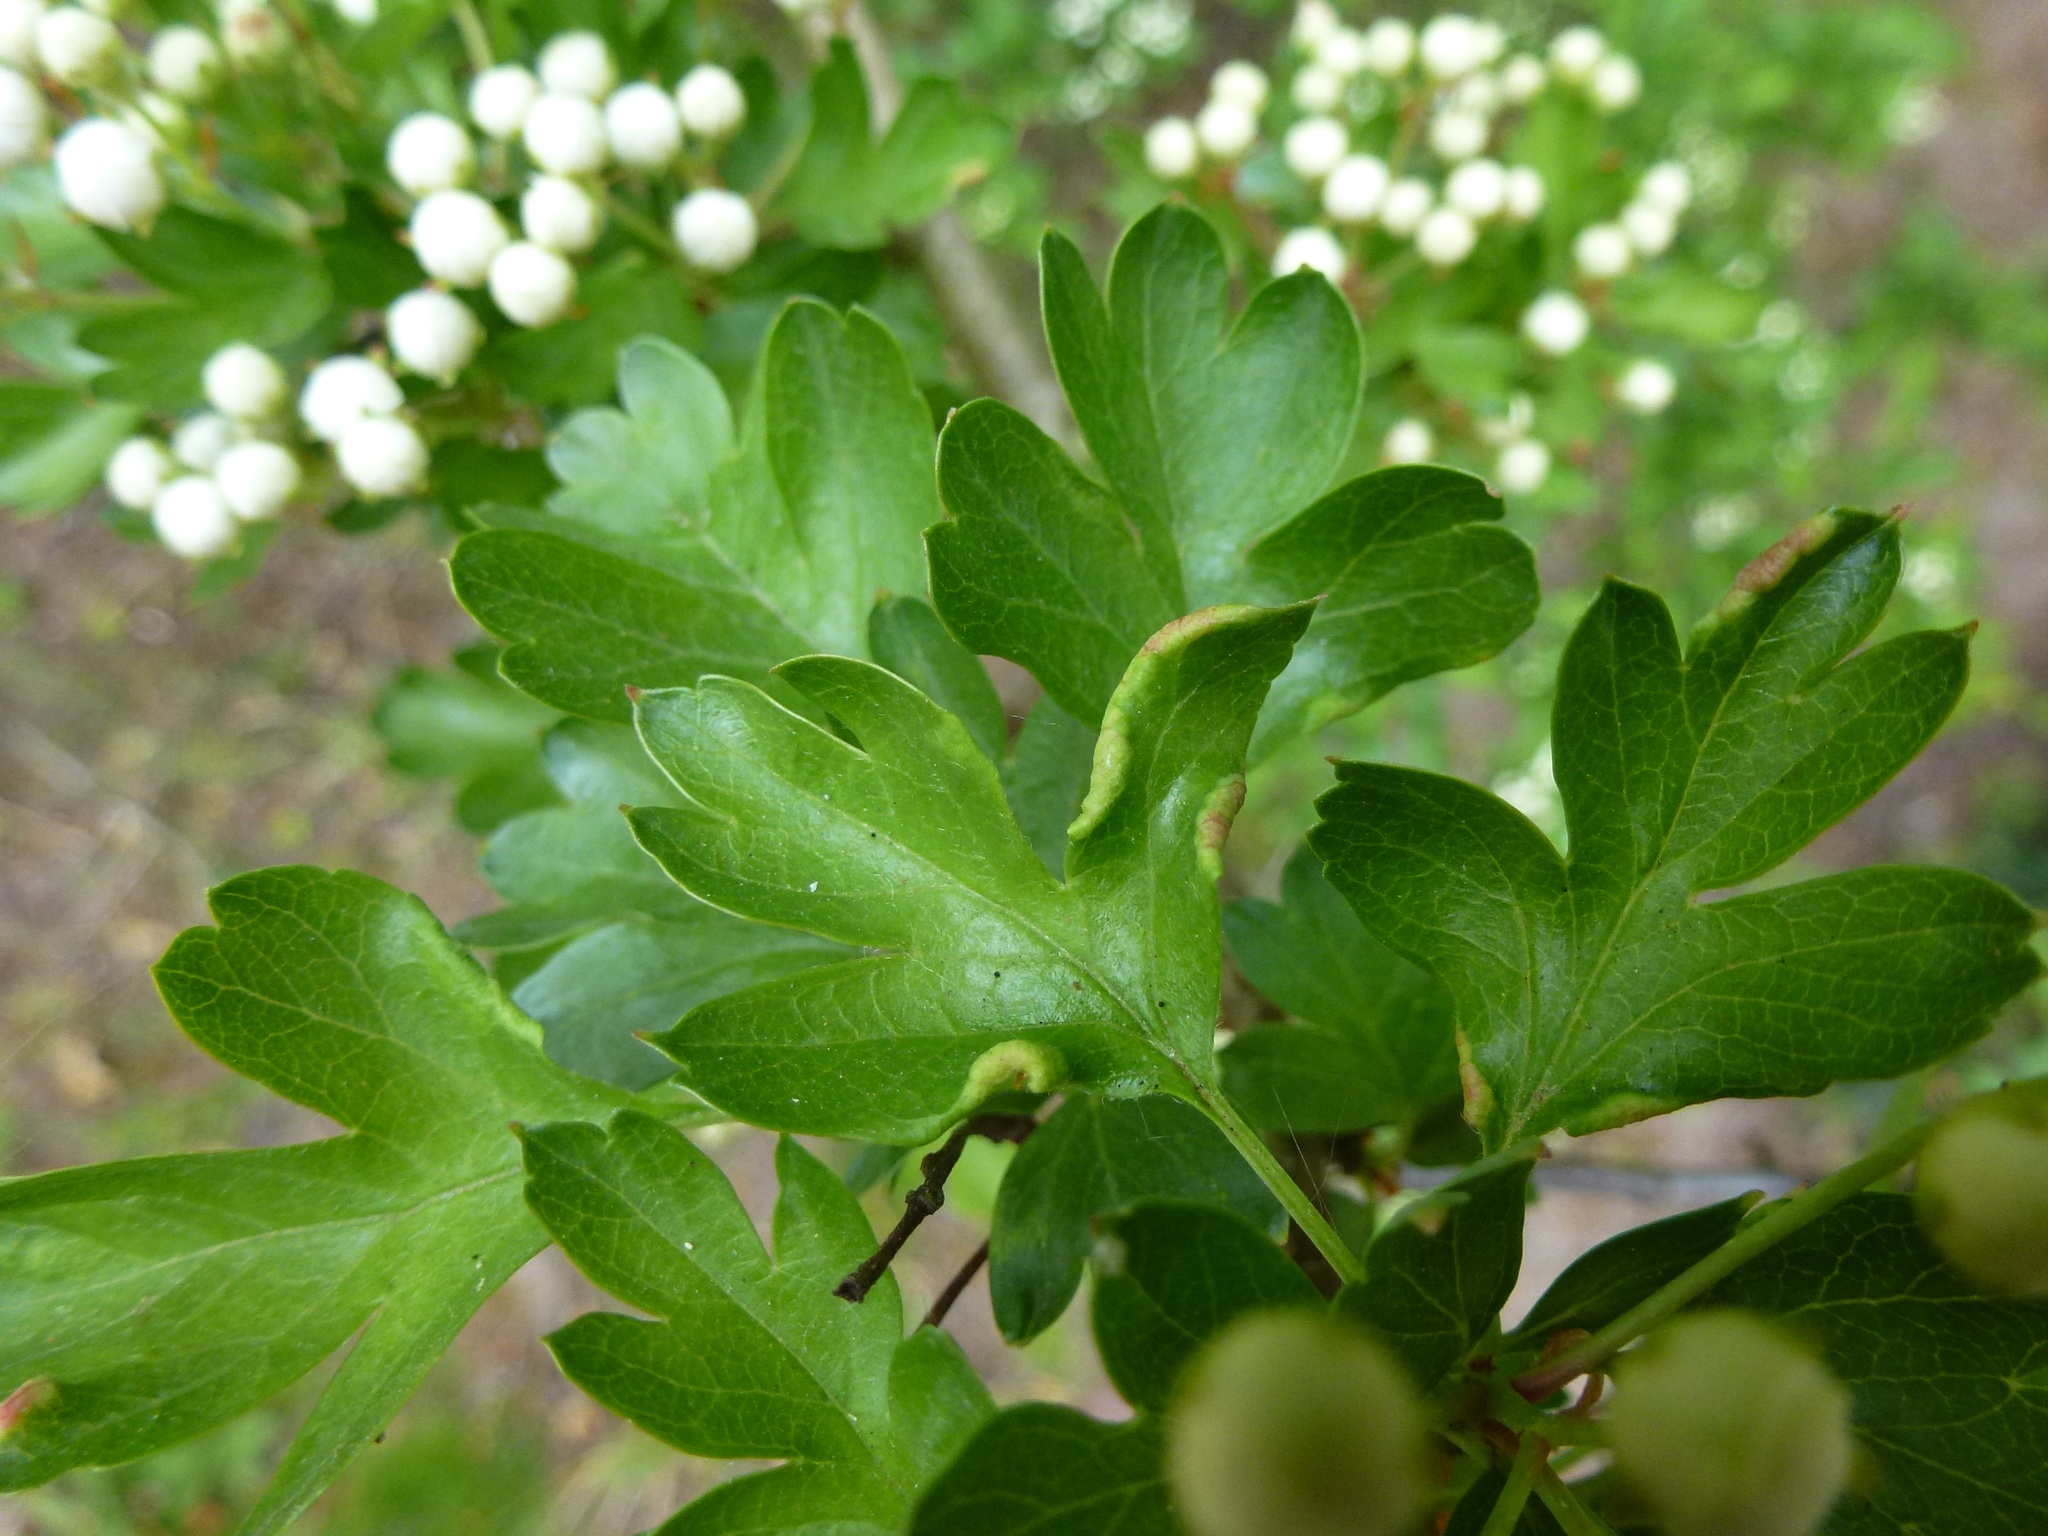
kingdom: Animalia
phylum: Arthropoda
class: Arachnida
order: Trombidiformes
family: Eriophyidae
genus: Phyllocoptes
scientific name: Phyllocoptes goniothorax
